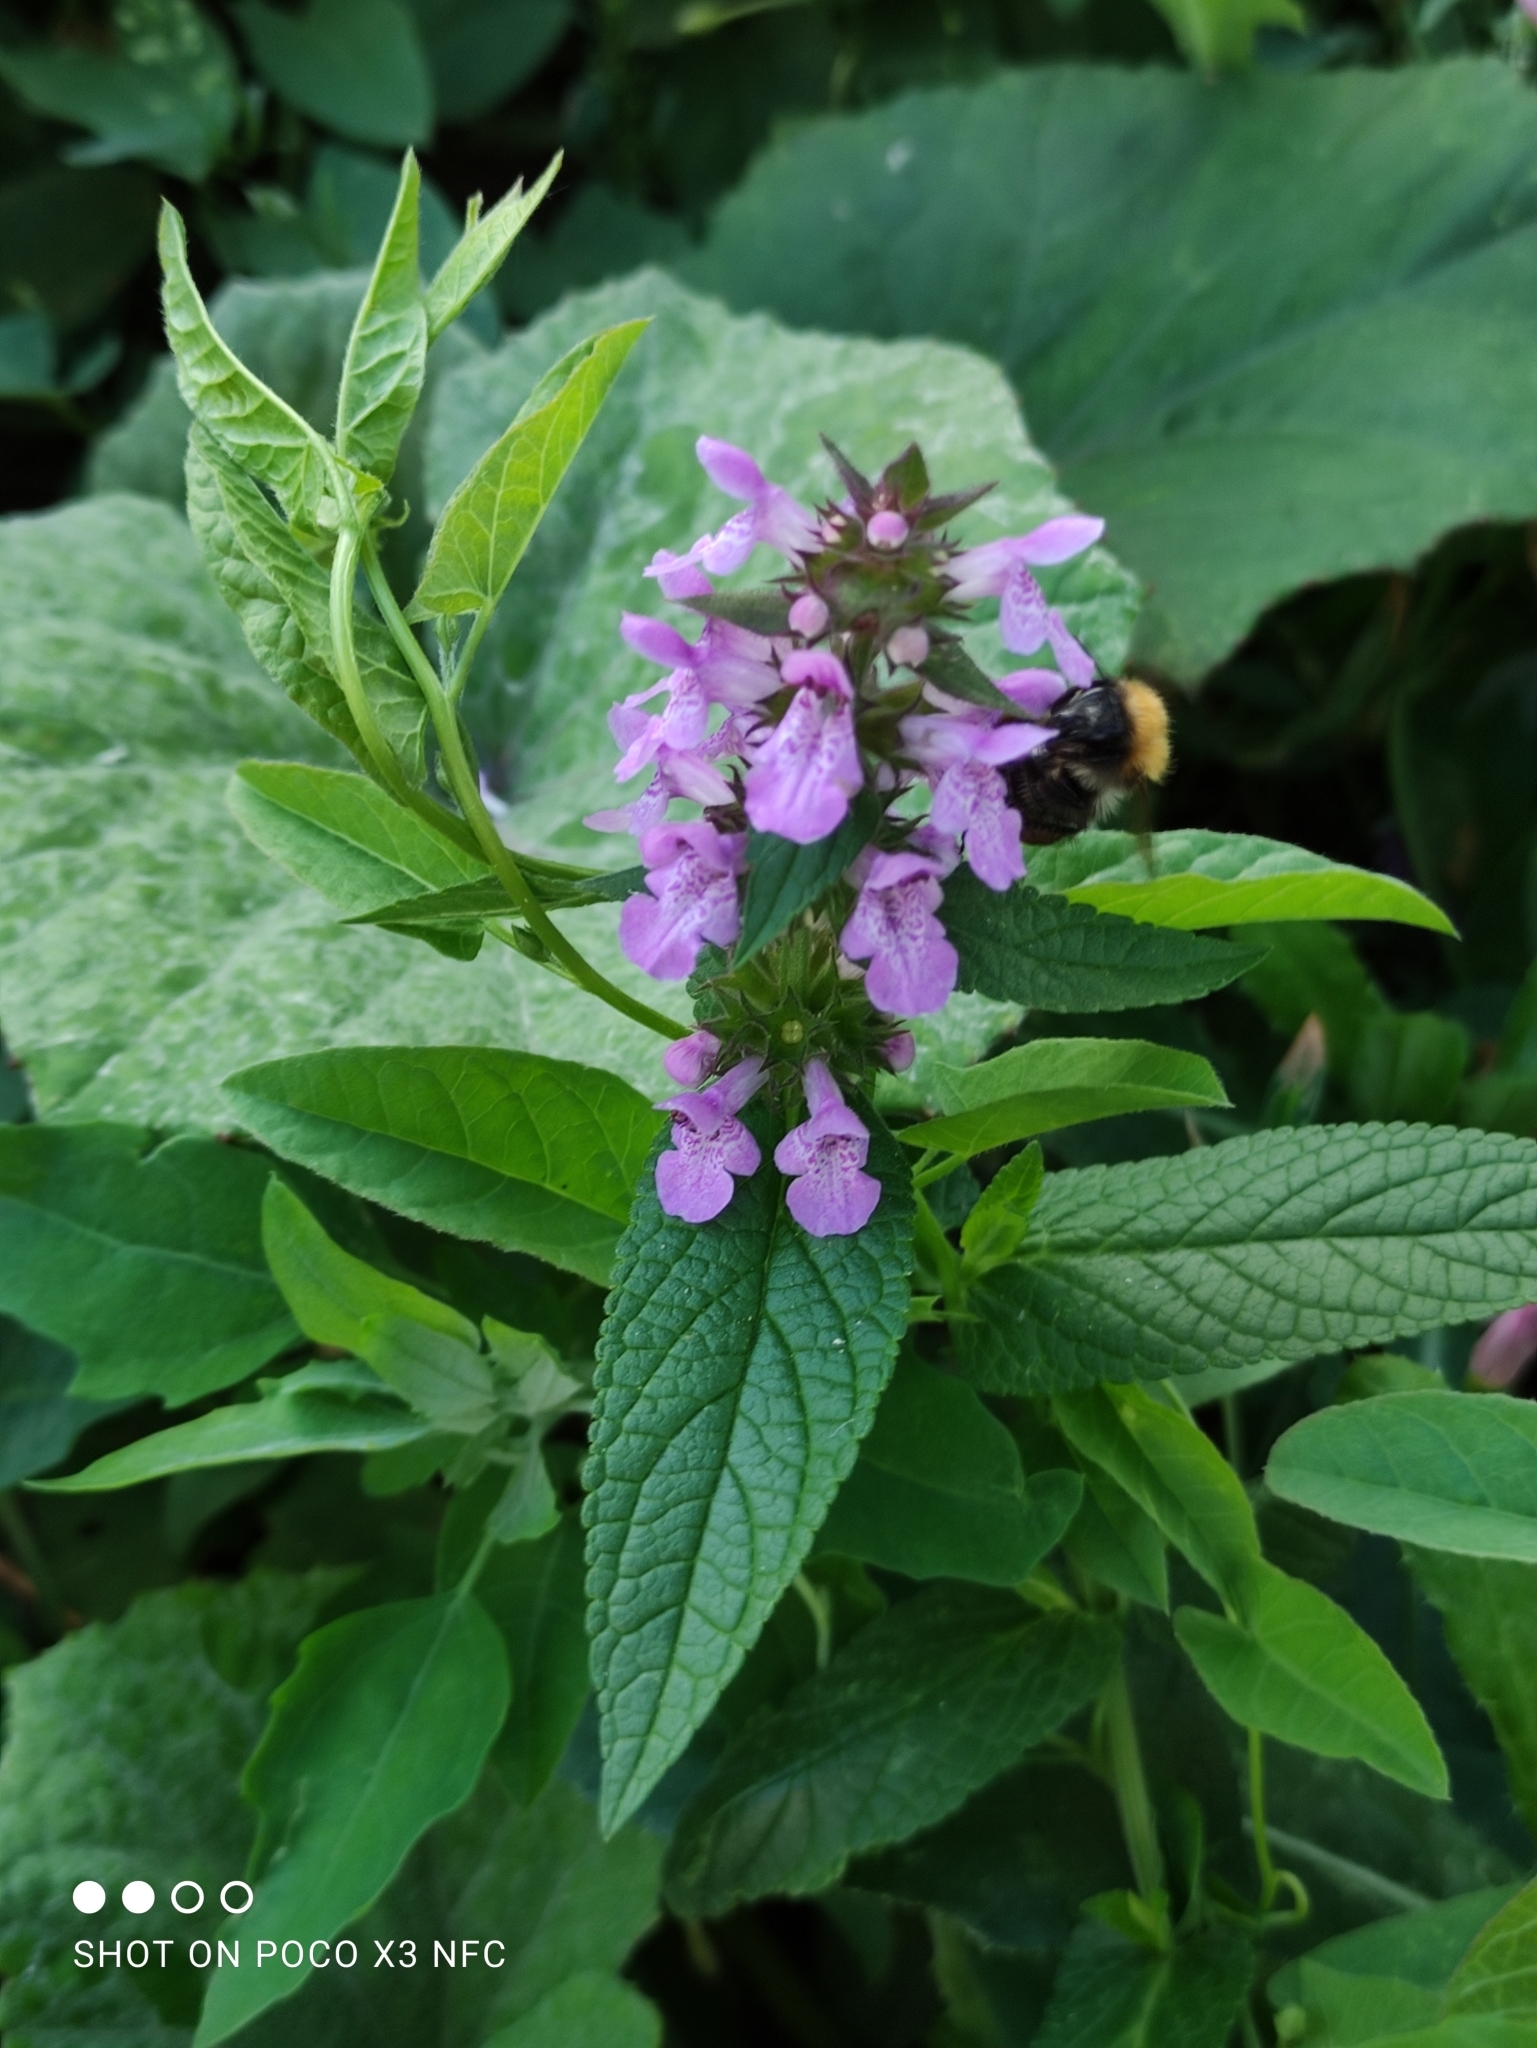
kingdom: Plantae
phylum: Tracheophyta
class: Magnoliopsida
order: Lamiales
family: Lamiaceae
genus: Stachys
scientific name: Stachys palustris
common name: Marsh woundwort
